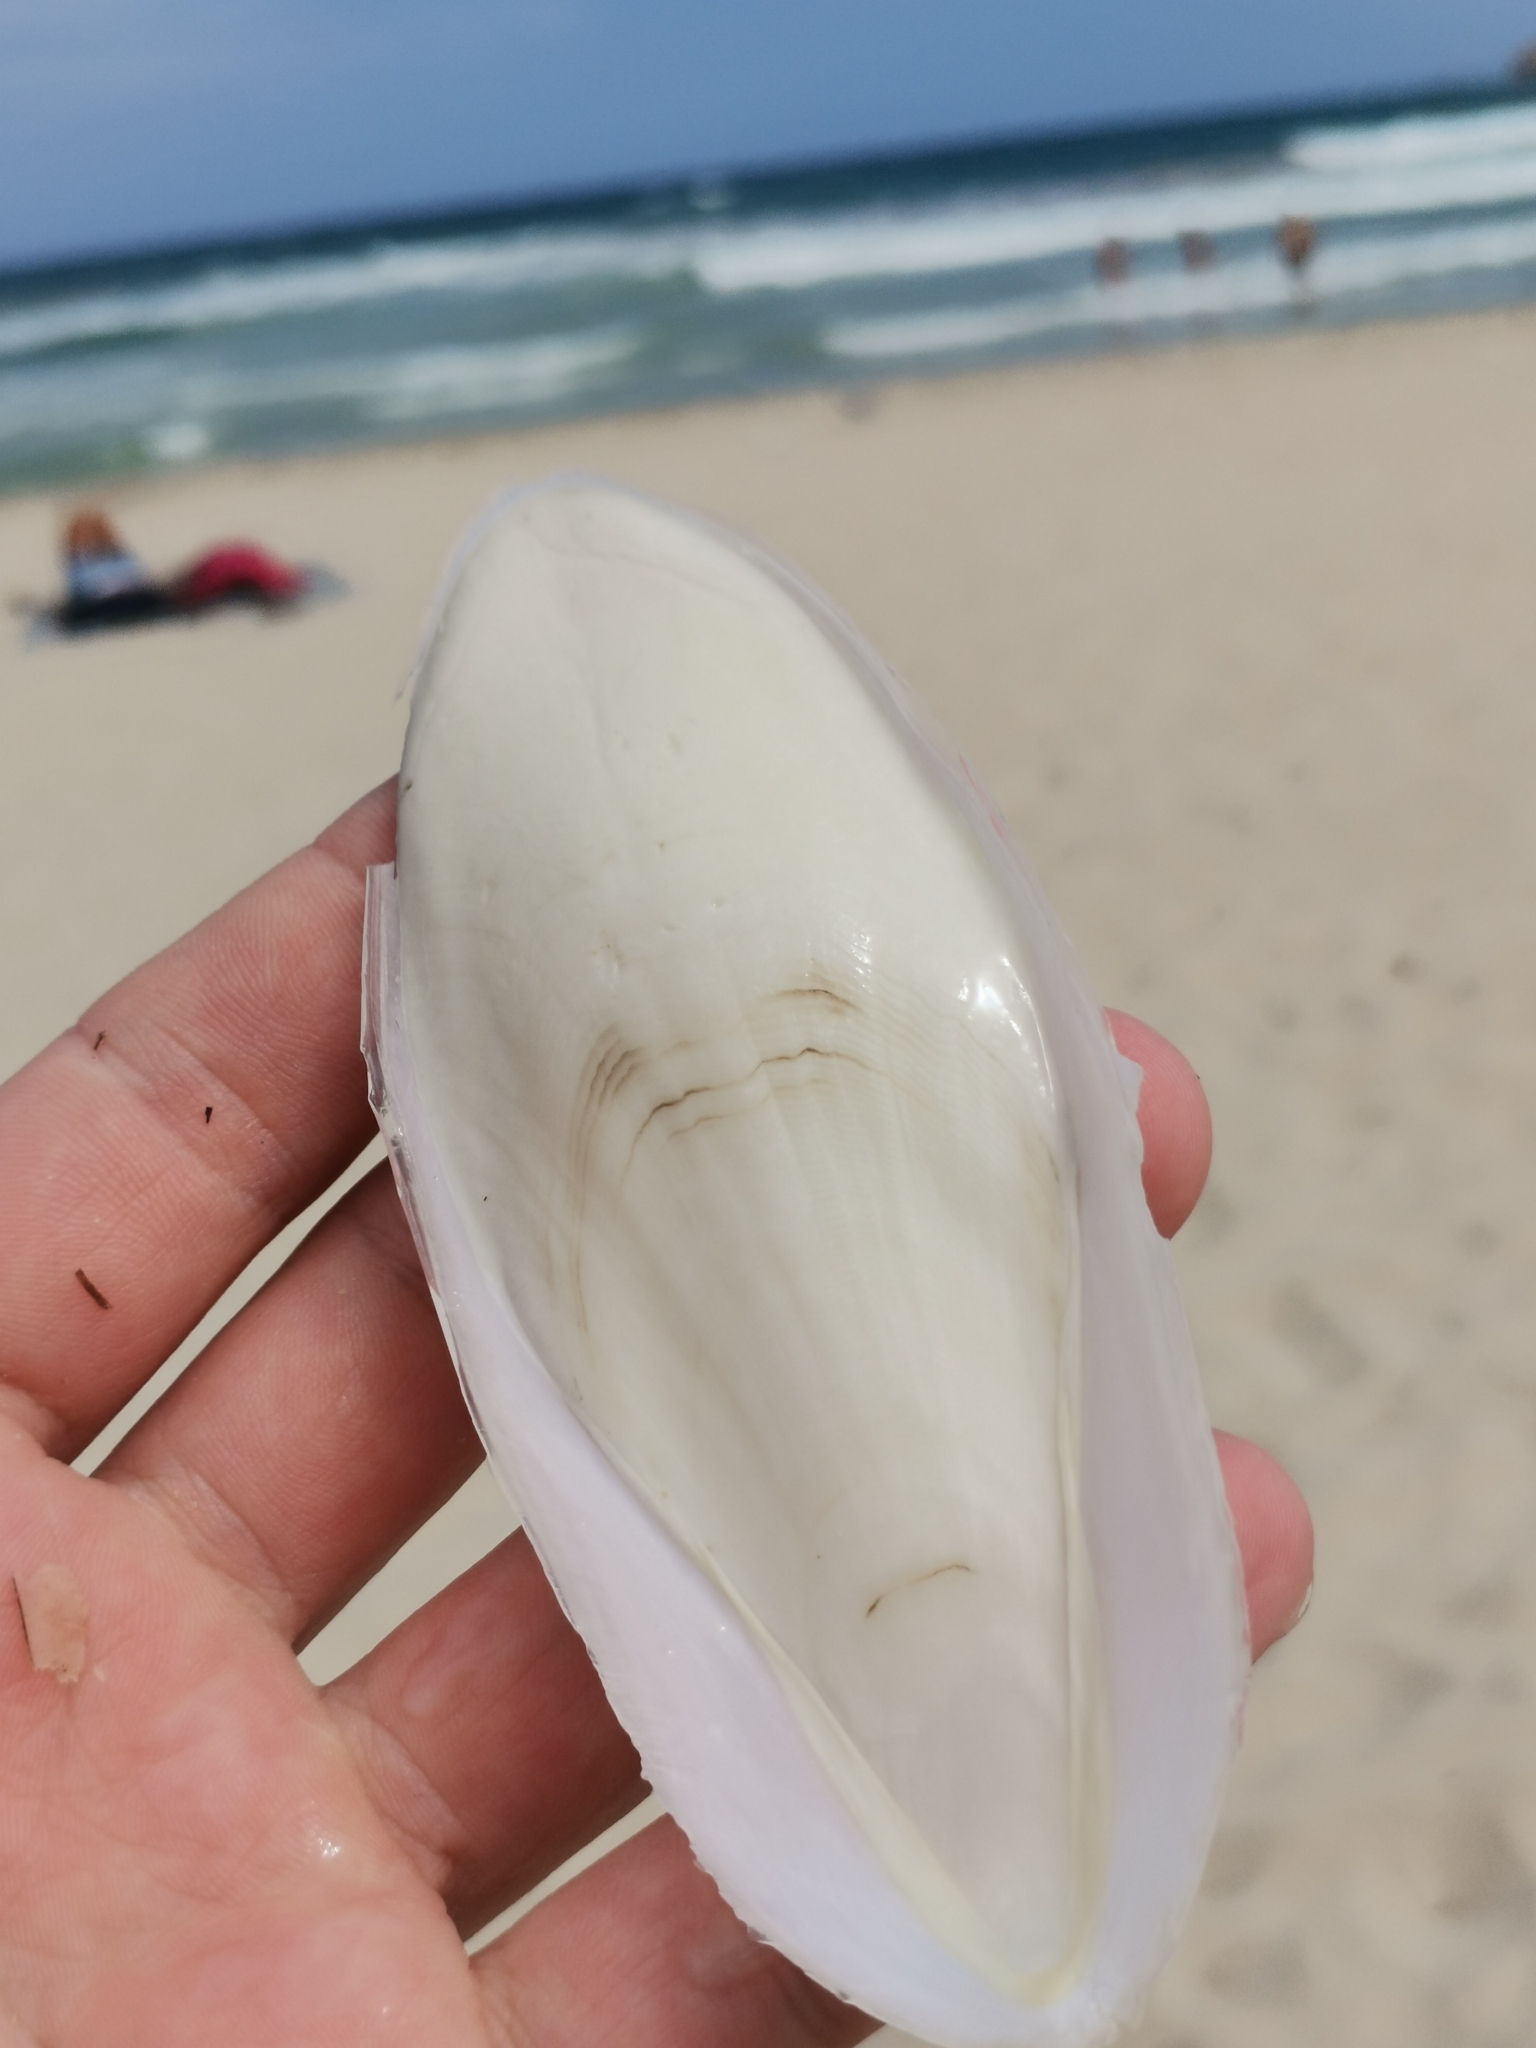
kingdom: Animalia
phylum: Mollusca
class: Cephalopoda
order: Sepiida
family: Sepiidae
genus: Sepia
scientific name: Sepia officinalis
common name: Common cuttlefish
